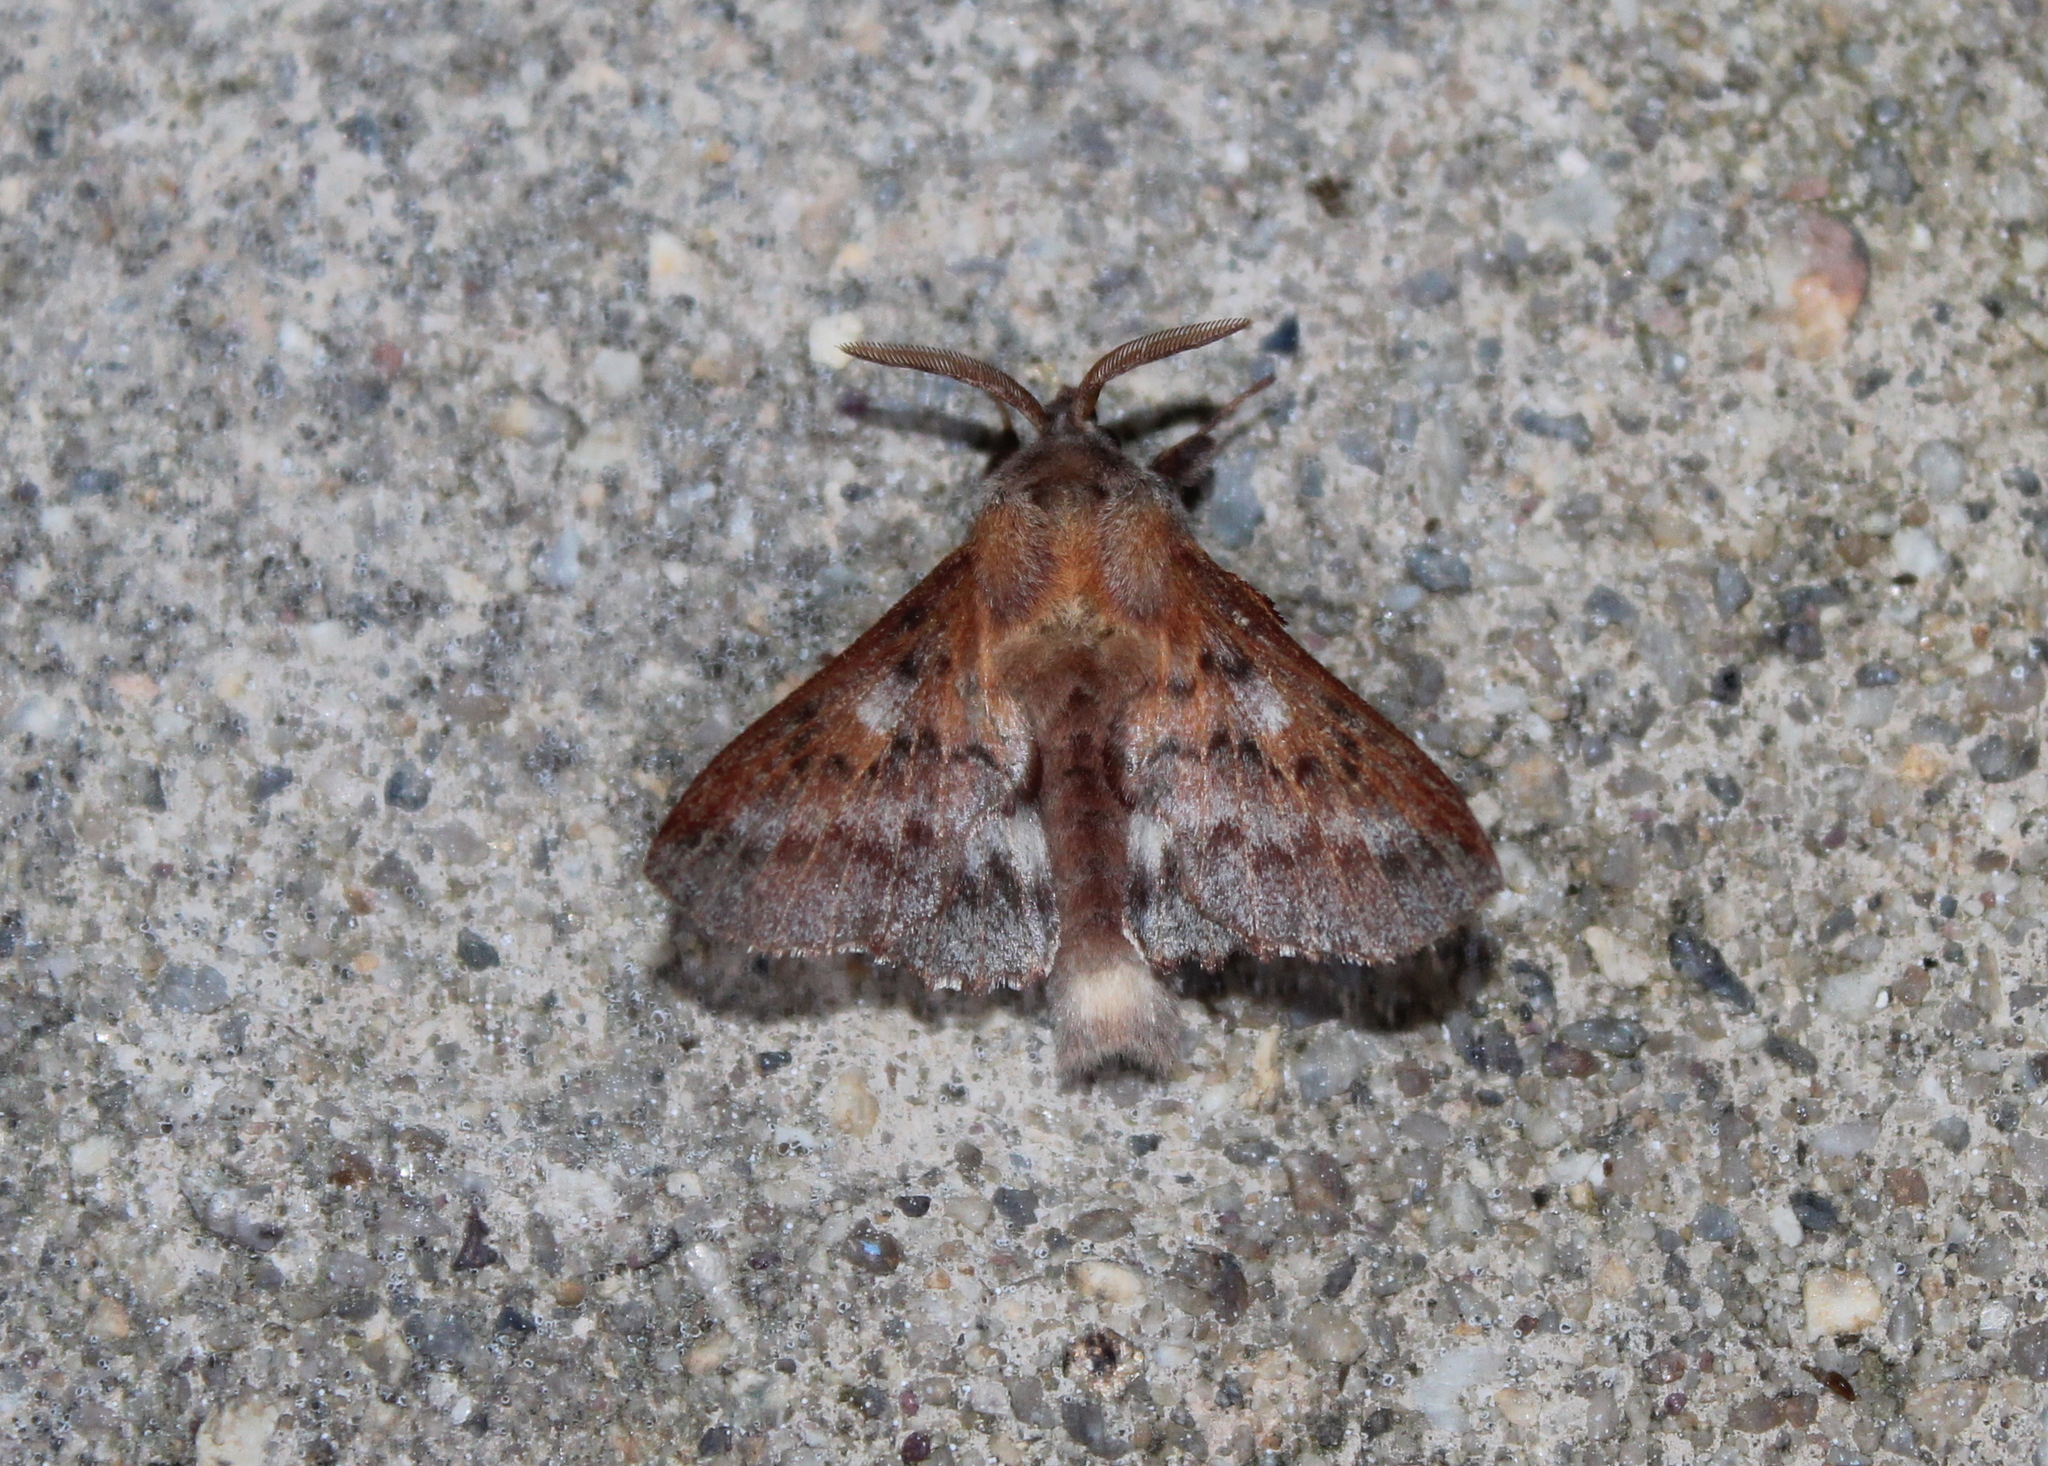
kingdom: Animalia
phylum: Arthropoda
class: Insecta
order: Lepidoptera
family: Lasiocampidae
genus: Phyllodesma
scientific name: Phyllodesma americana
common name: American lappet moth
